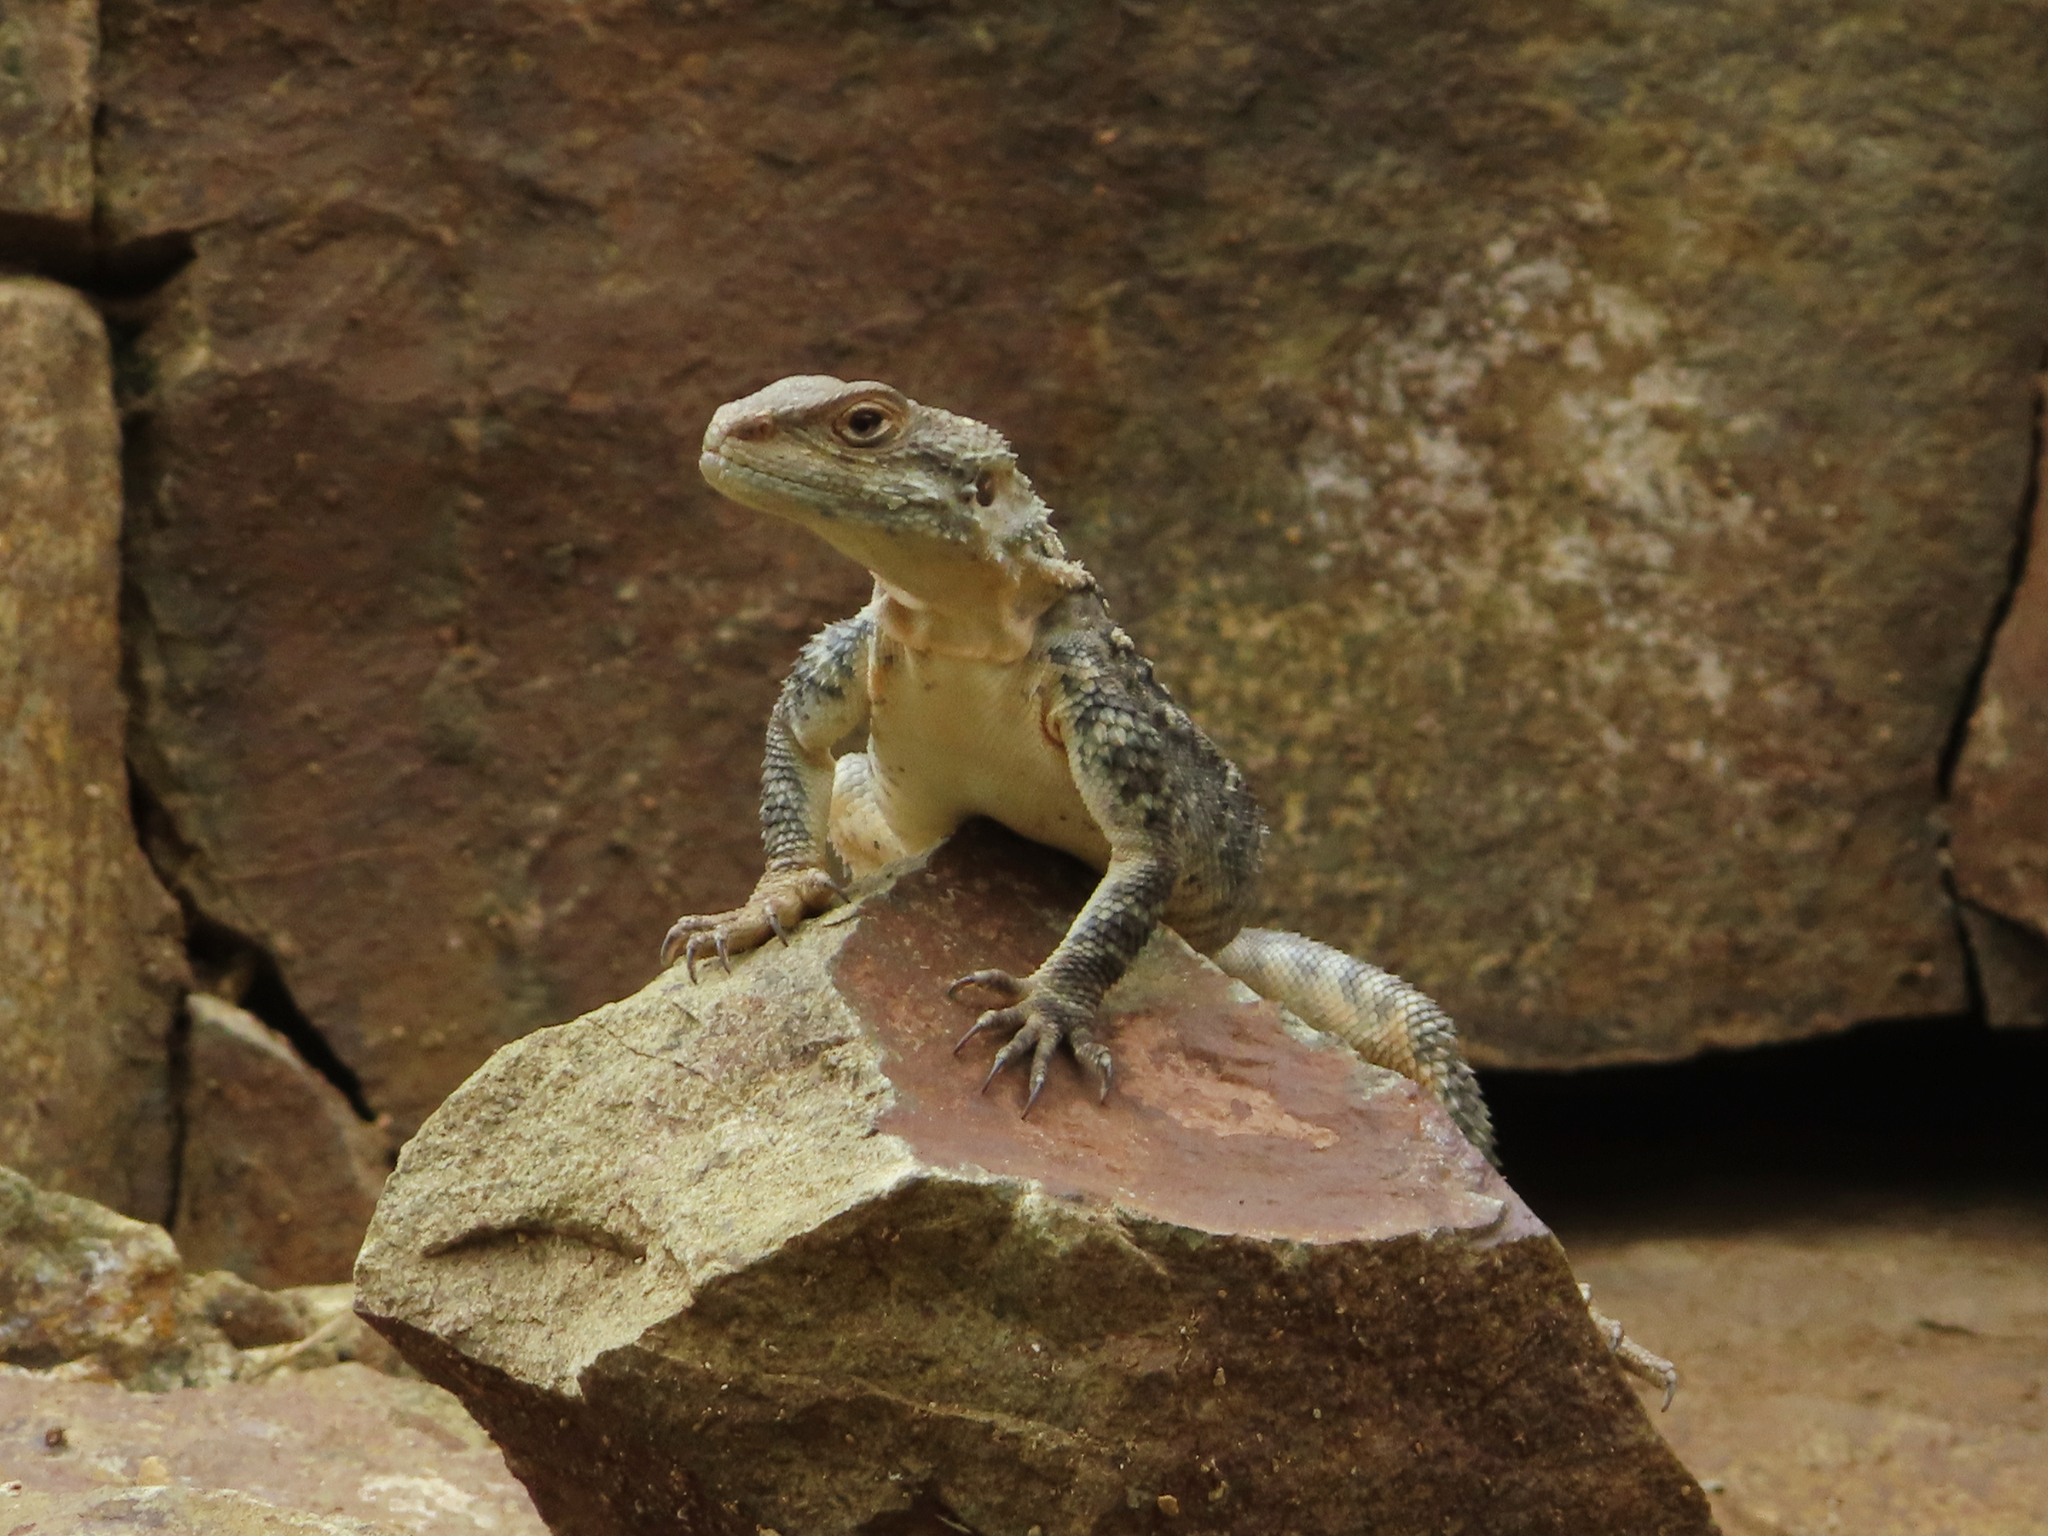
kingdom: Animalia
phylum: Chordata
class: Squamata
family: Agamidae
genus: Paralaudakia
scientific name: Paralaudakia caucasia
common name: Caucasian agama
